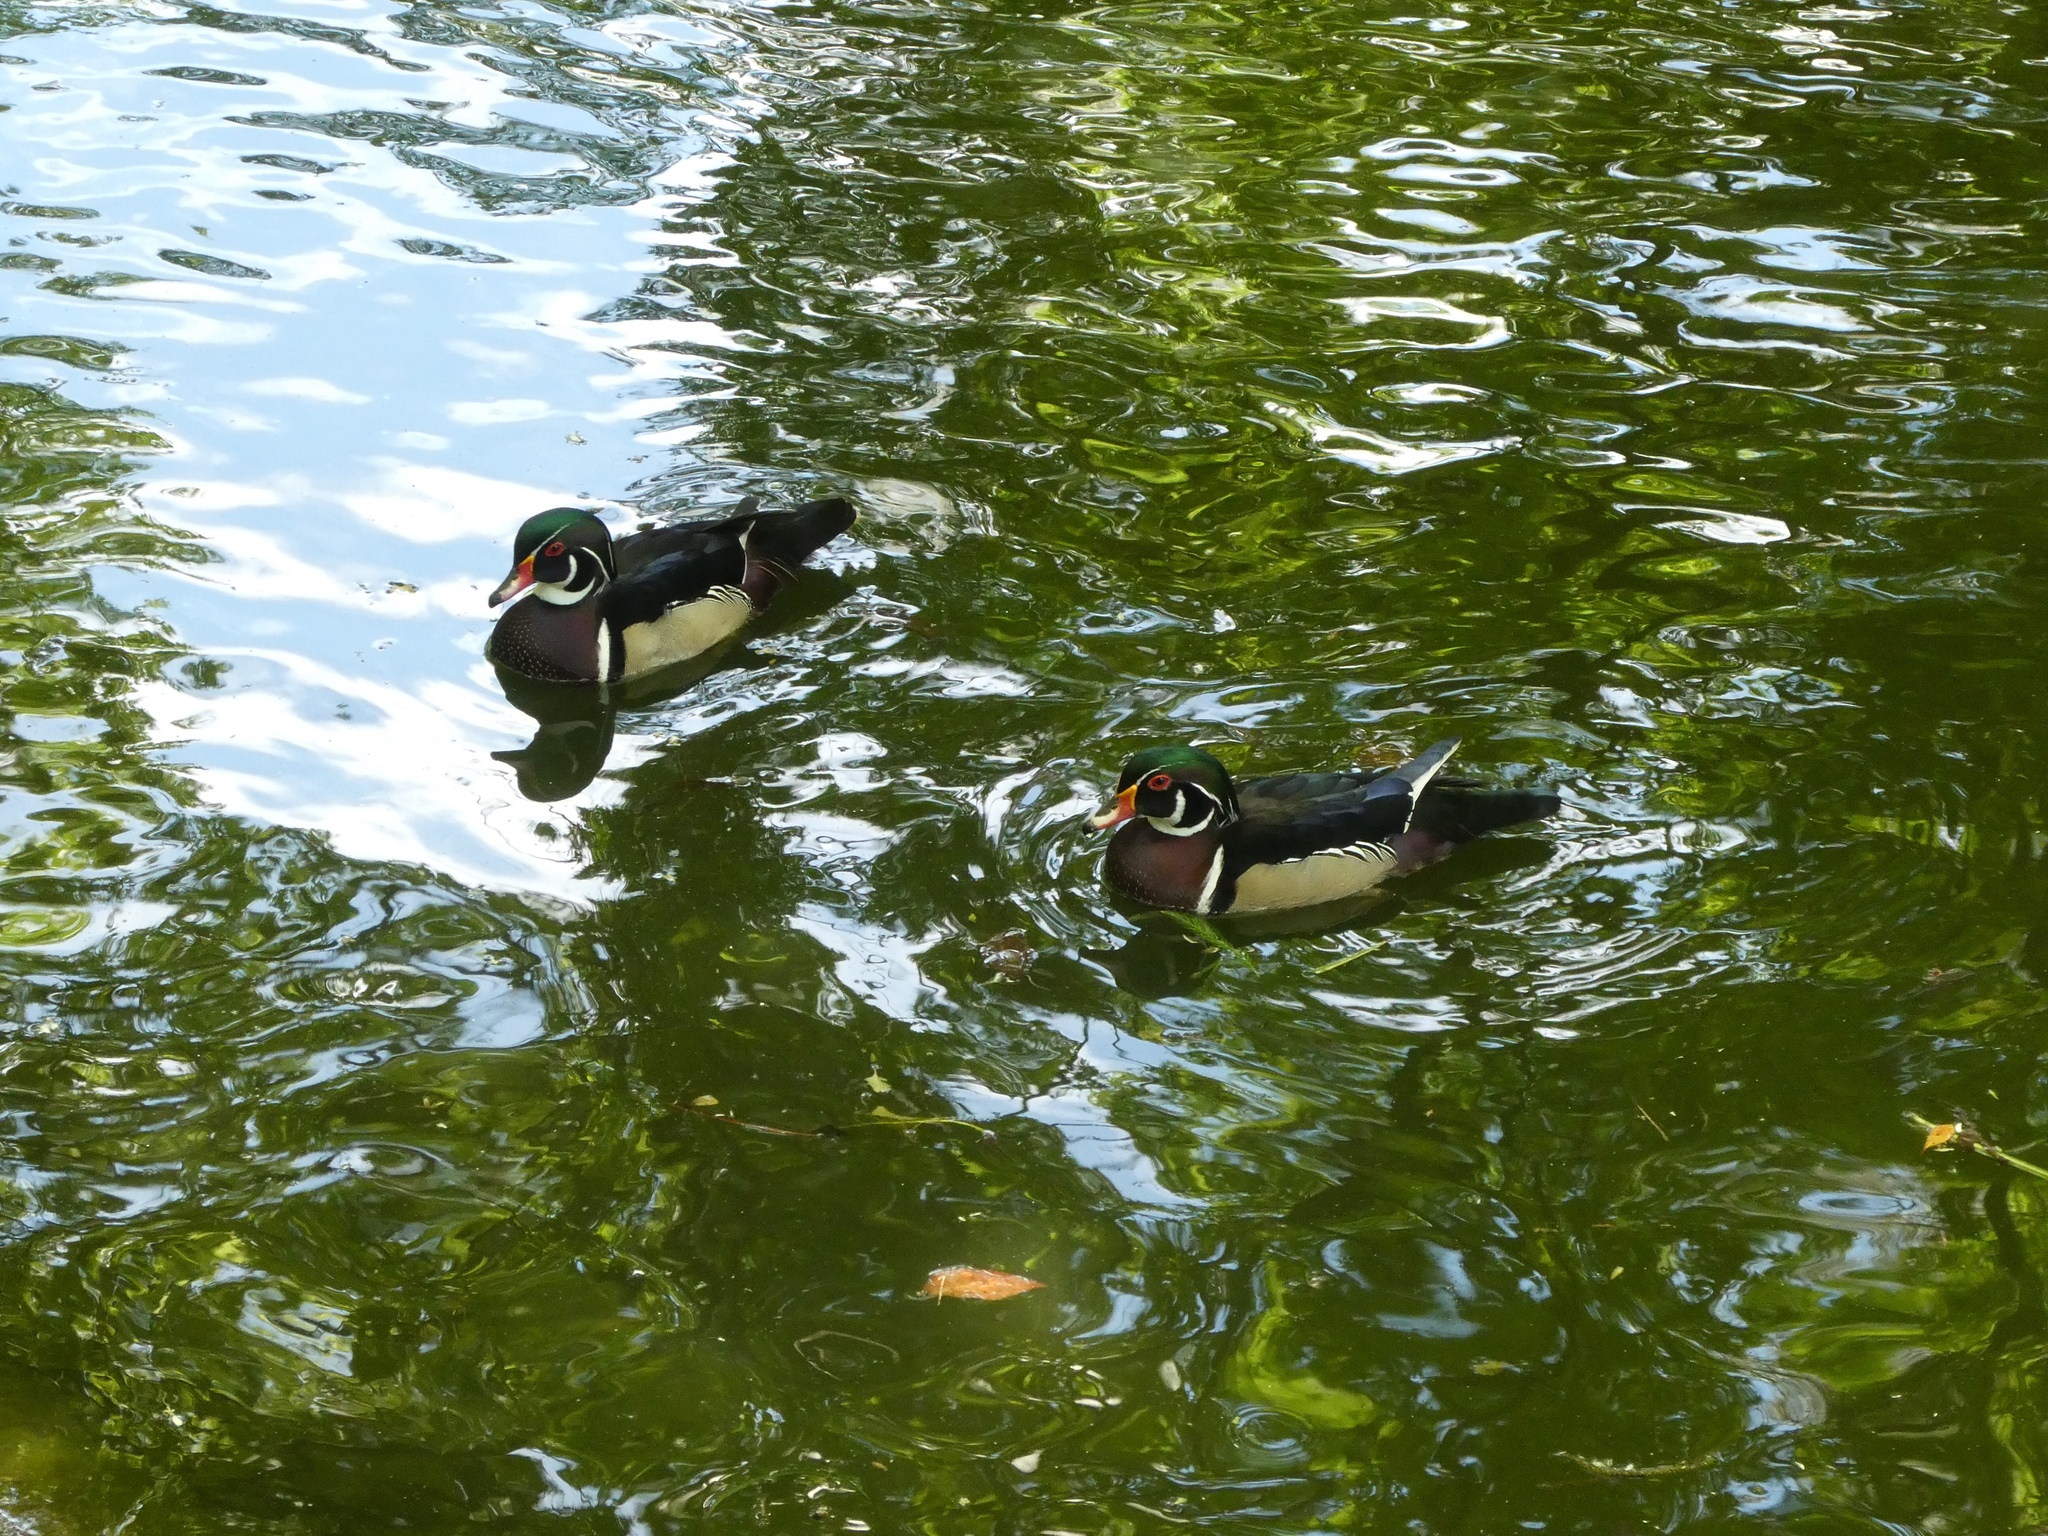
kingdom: Animalia
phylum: Chordata
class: Aves
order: Anseriformes
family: Anatidae
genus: Aix
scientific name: Aix sponsa
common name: Wood duck
